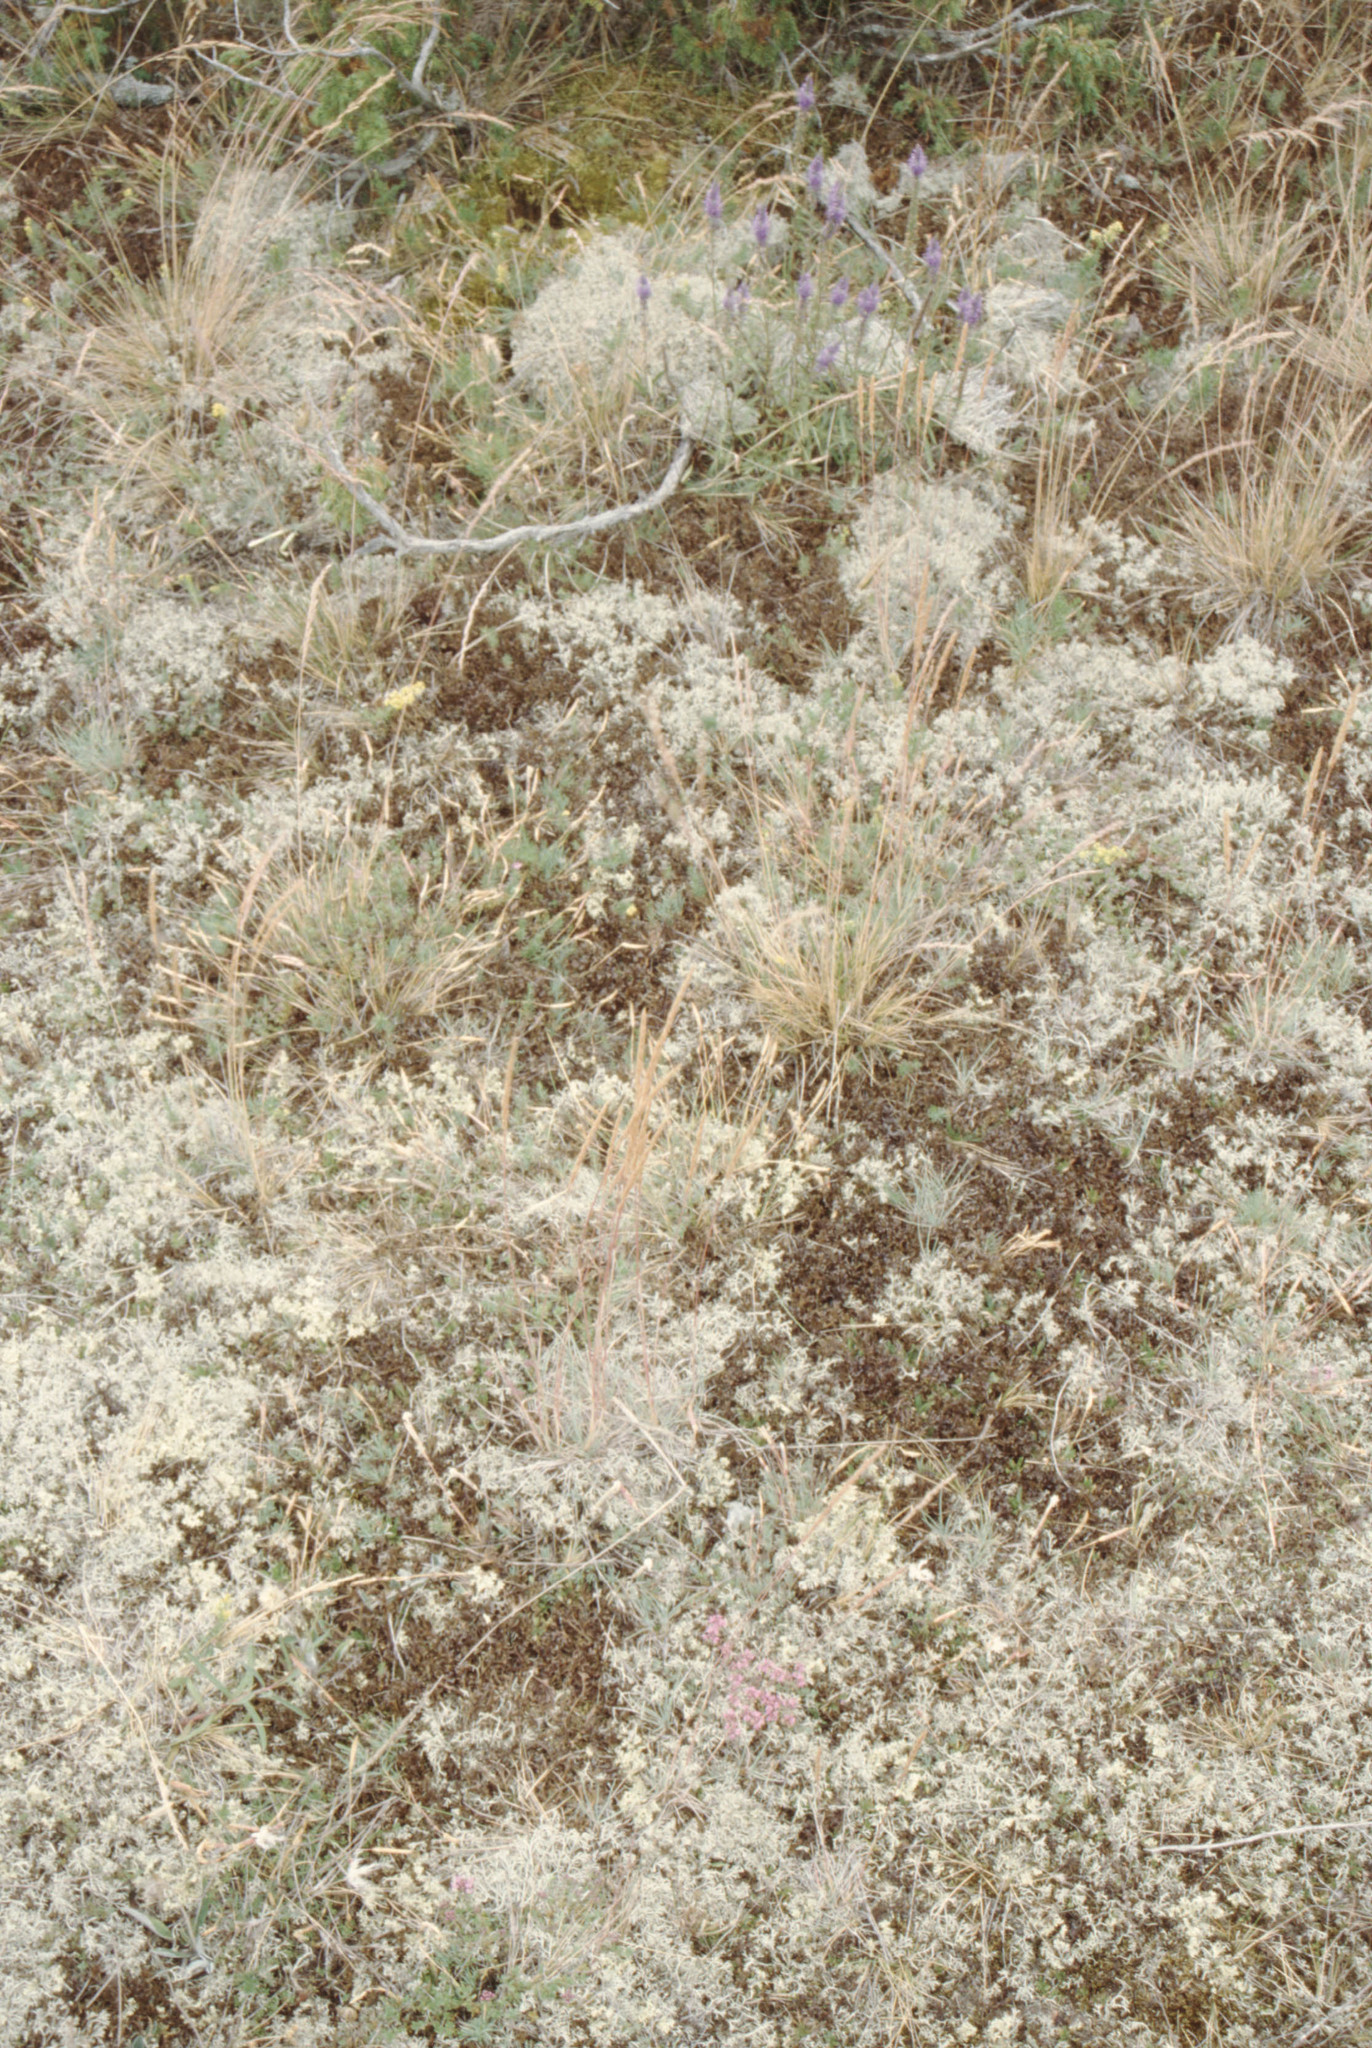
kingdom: Plantae
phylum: Tracheophyta
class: Magnoliopsida
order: Lamiales
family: Plantaginaceae
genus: Veronica
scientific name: Veronica spicata
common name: Spiked speedwell
